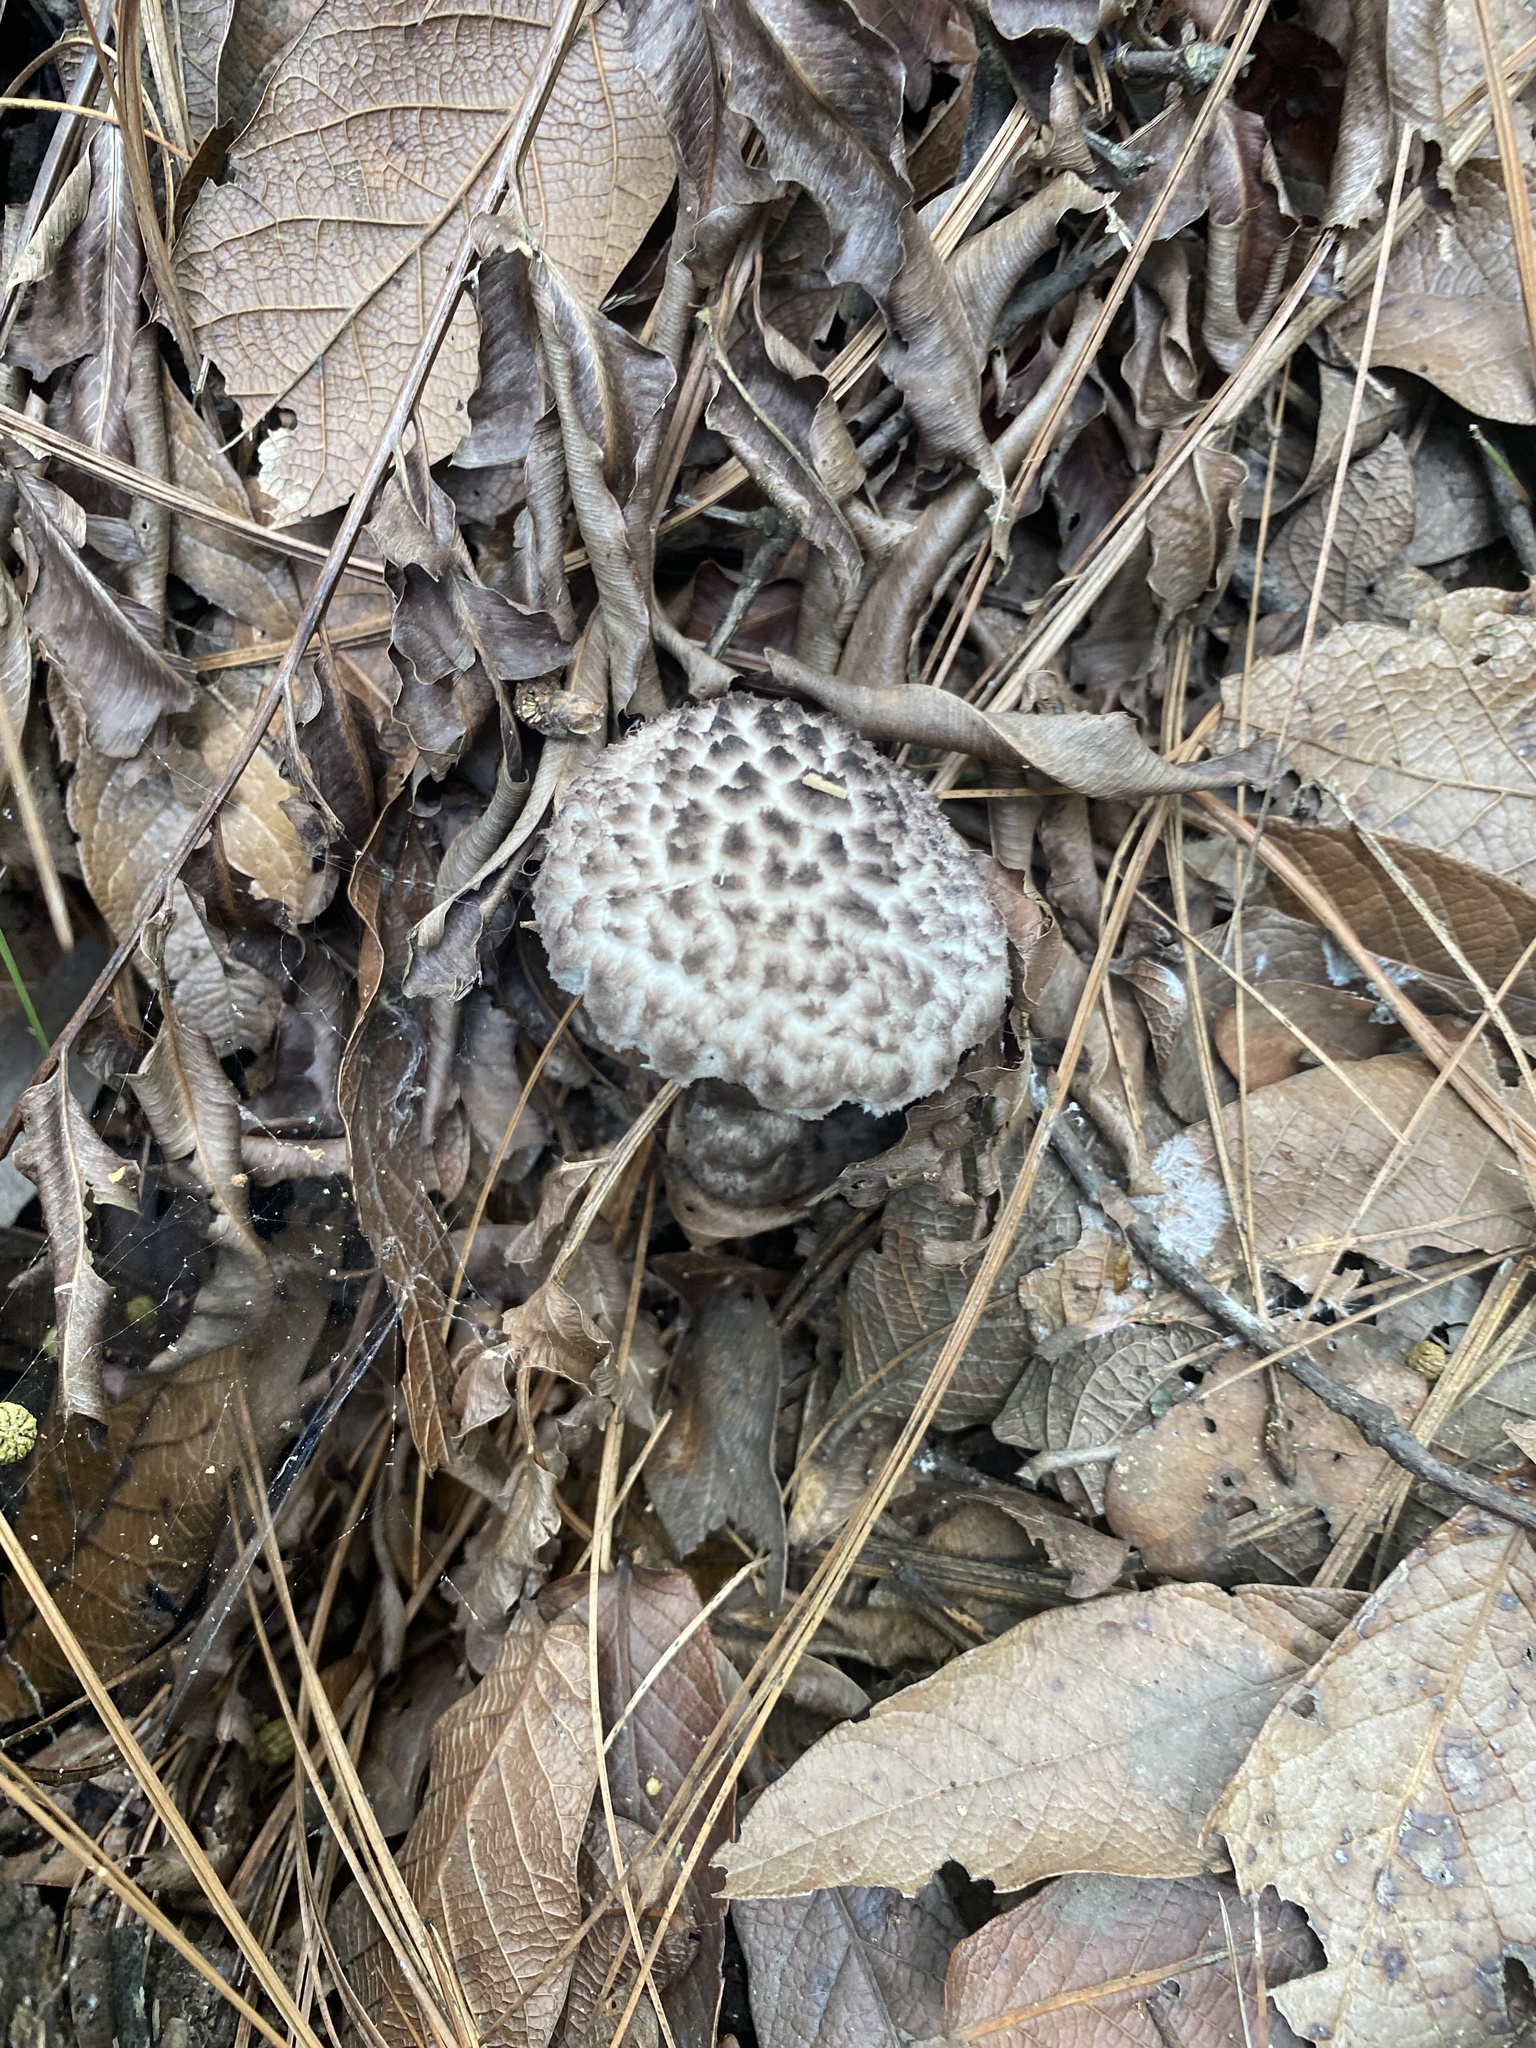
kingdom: Fungi
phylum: Basidiomycota
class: Agaricomycetes
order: Boletales
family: Boletaceae
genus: Strobilomyces
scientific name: Strobilomyces strobilaceus
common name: Old man of the woods
